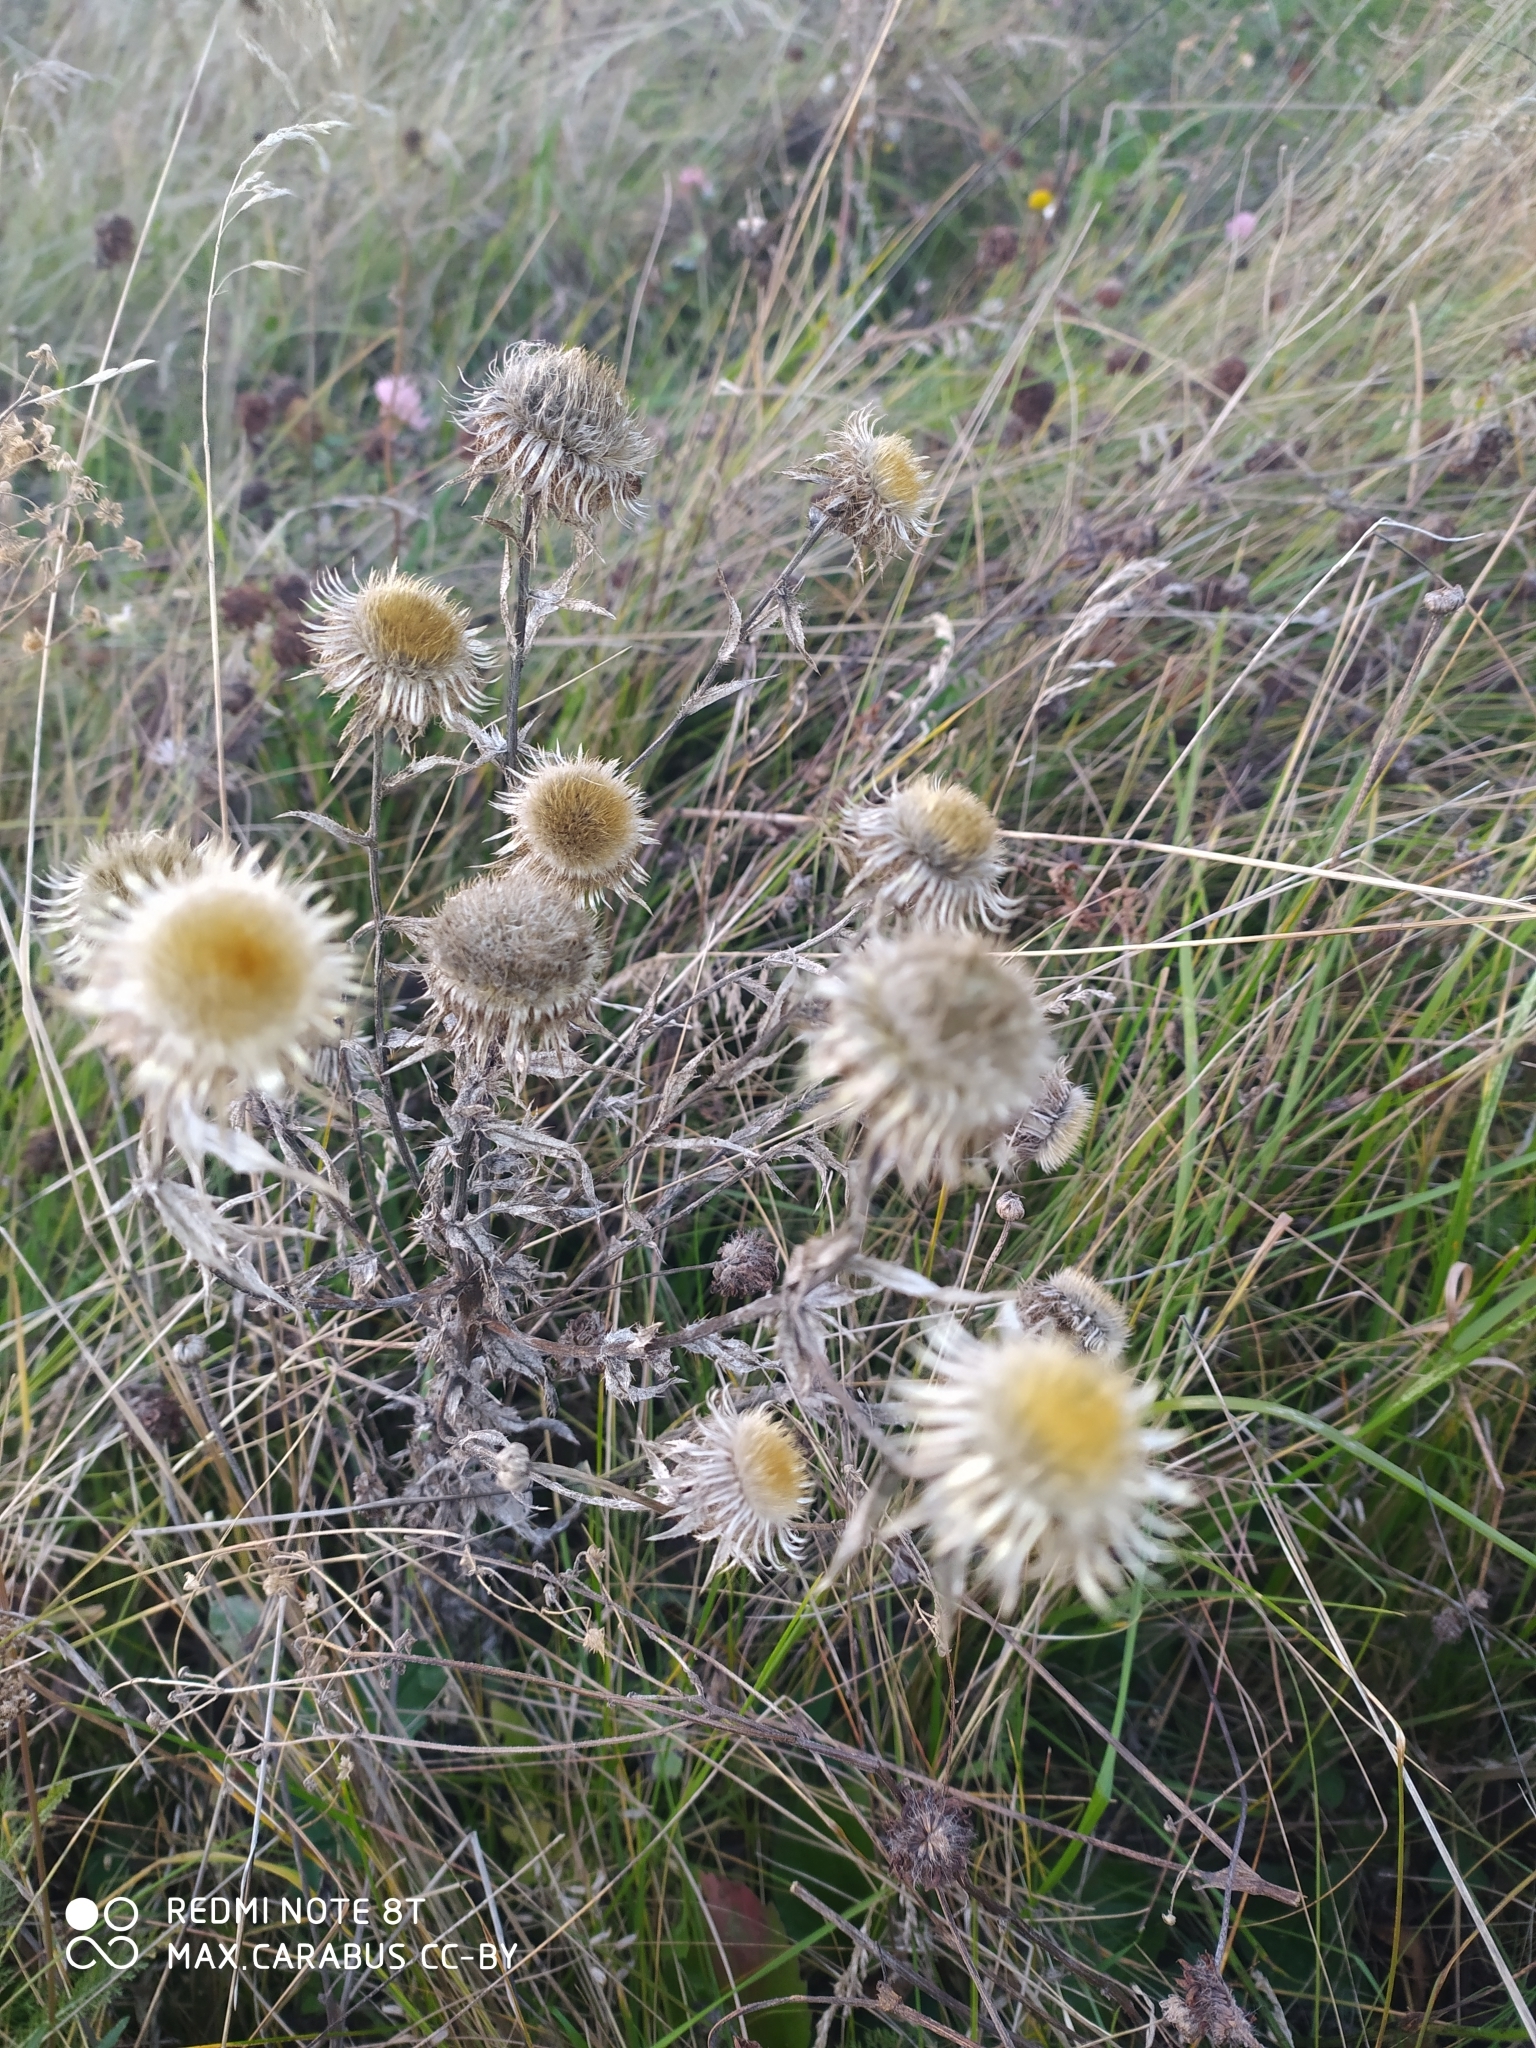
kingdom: Plantae
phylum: Tracheophyta
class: Magnoliopsida
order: Asterales
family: Asteraceae
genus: Carlina
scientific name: Carlina biebersteinii
